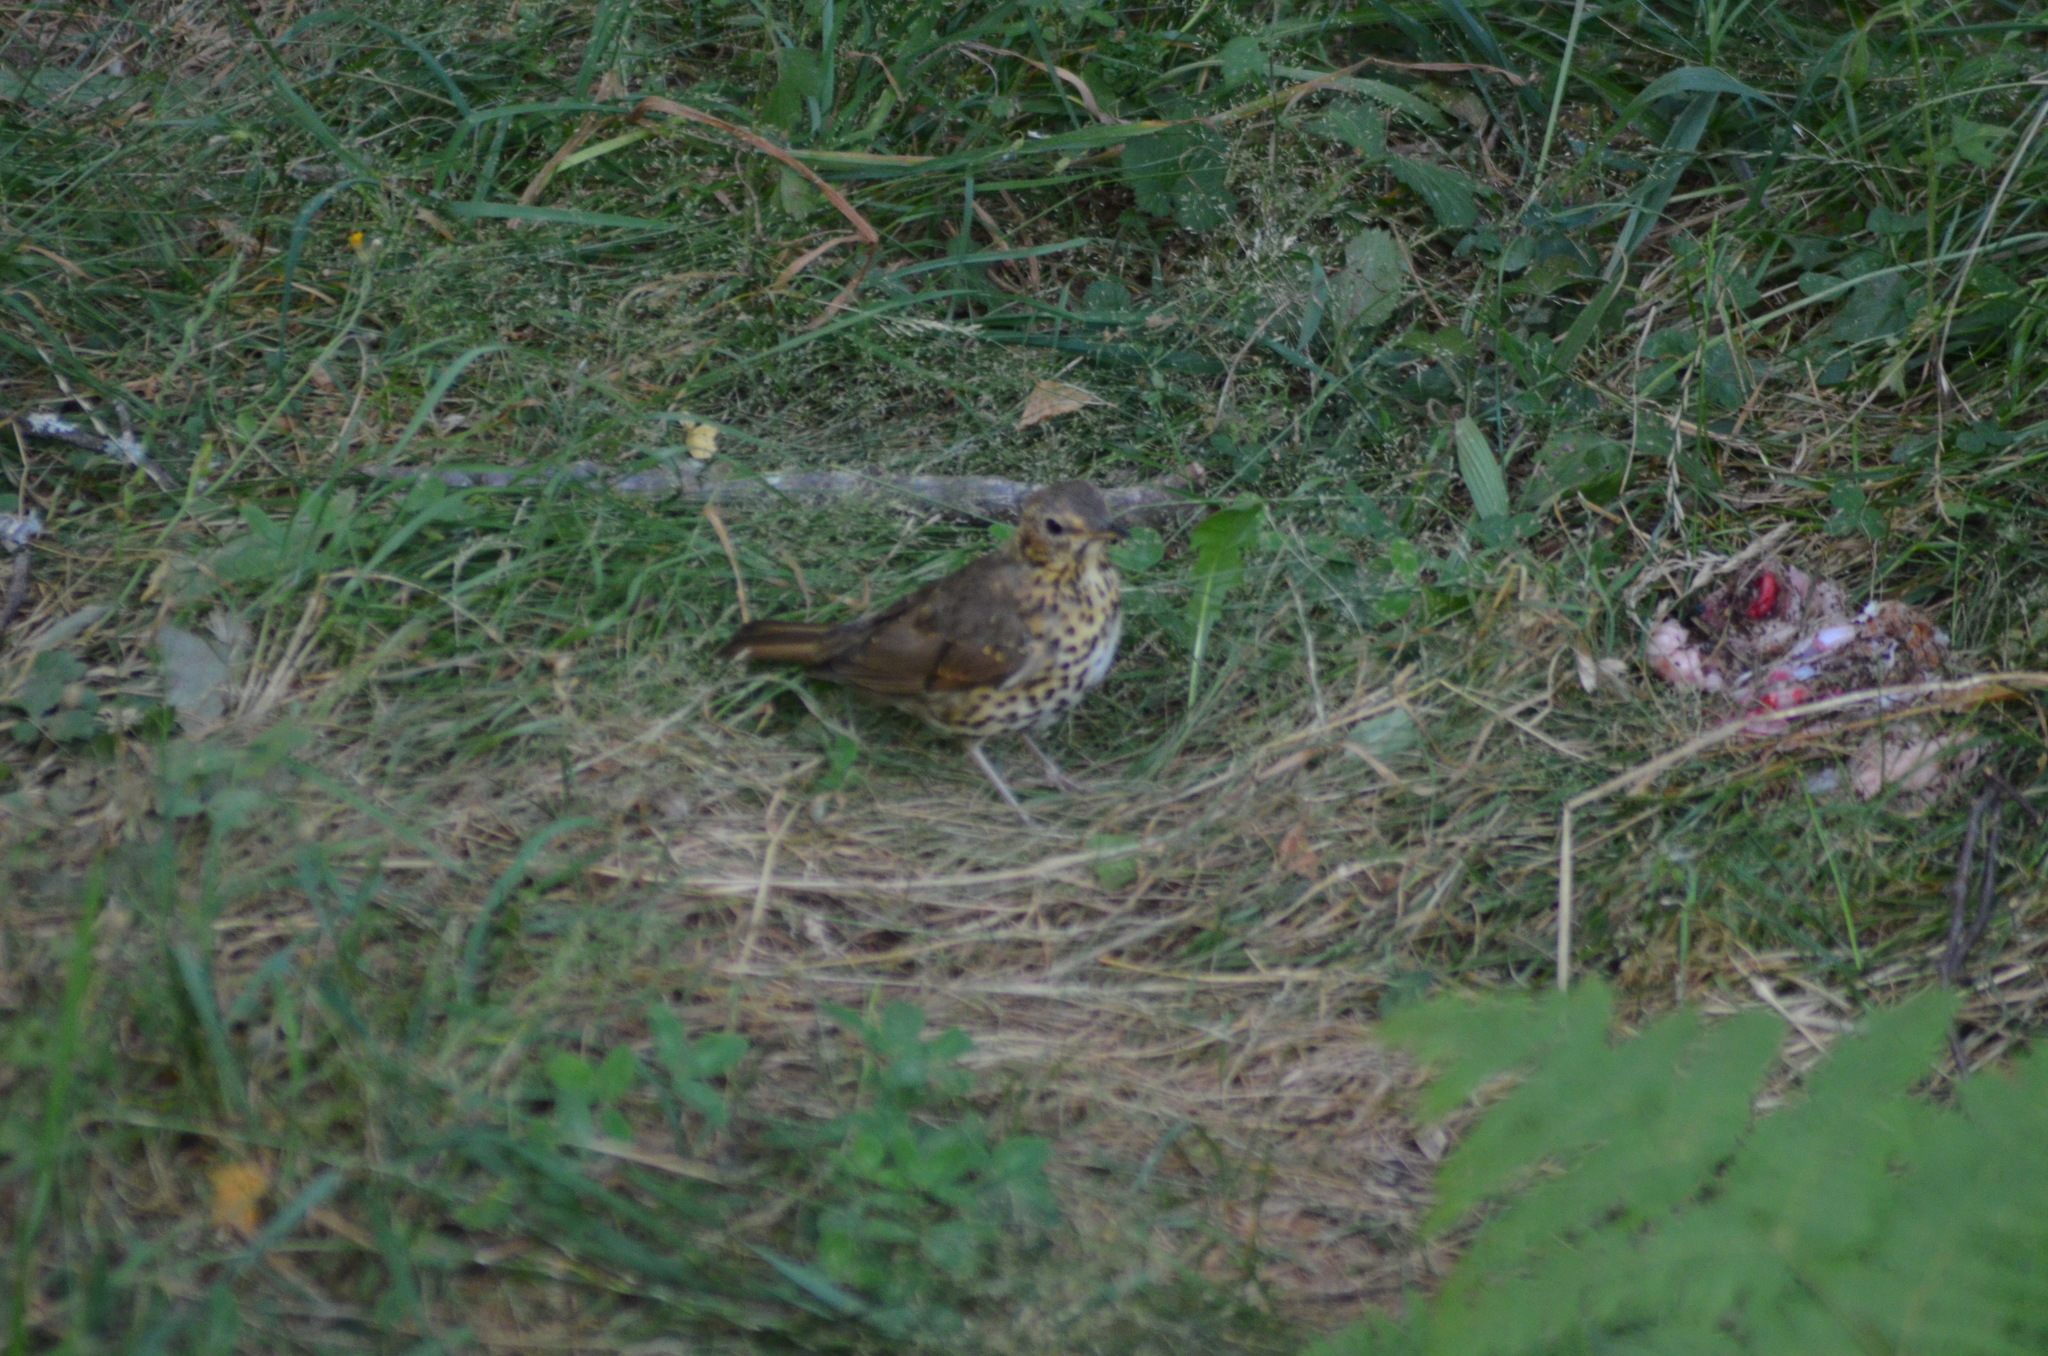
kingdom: Animalia
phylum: Chordata
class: Aves
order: Passeriformes
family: Turdidae
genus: Turdus
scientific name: Turdus philomelos
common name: Song thrush
